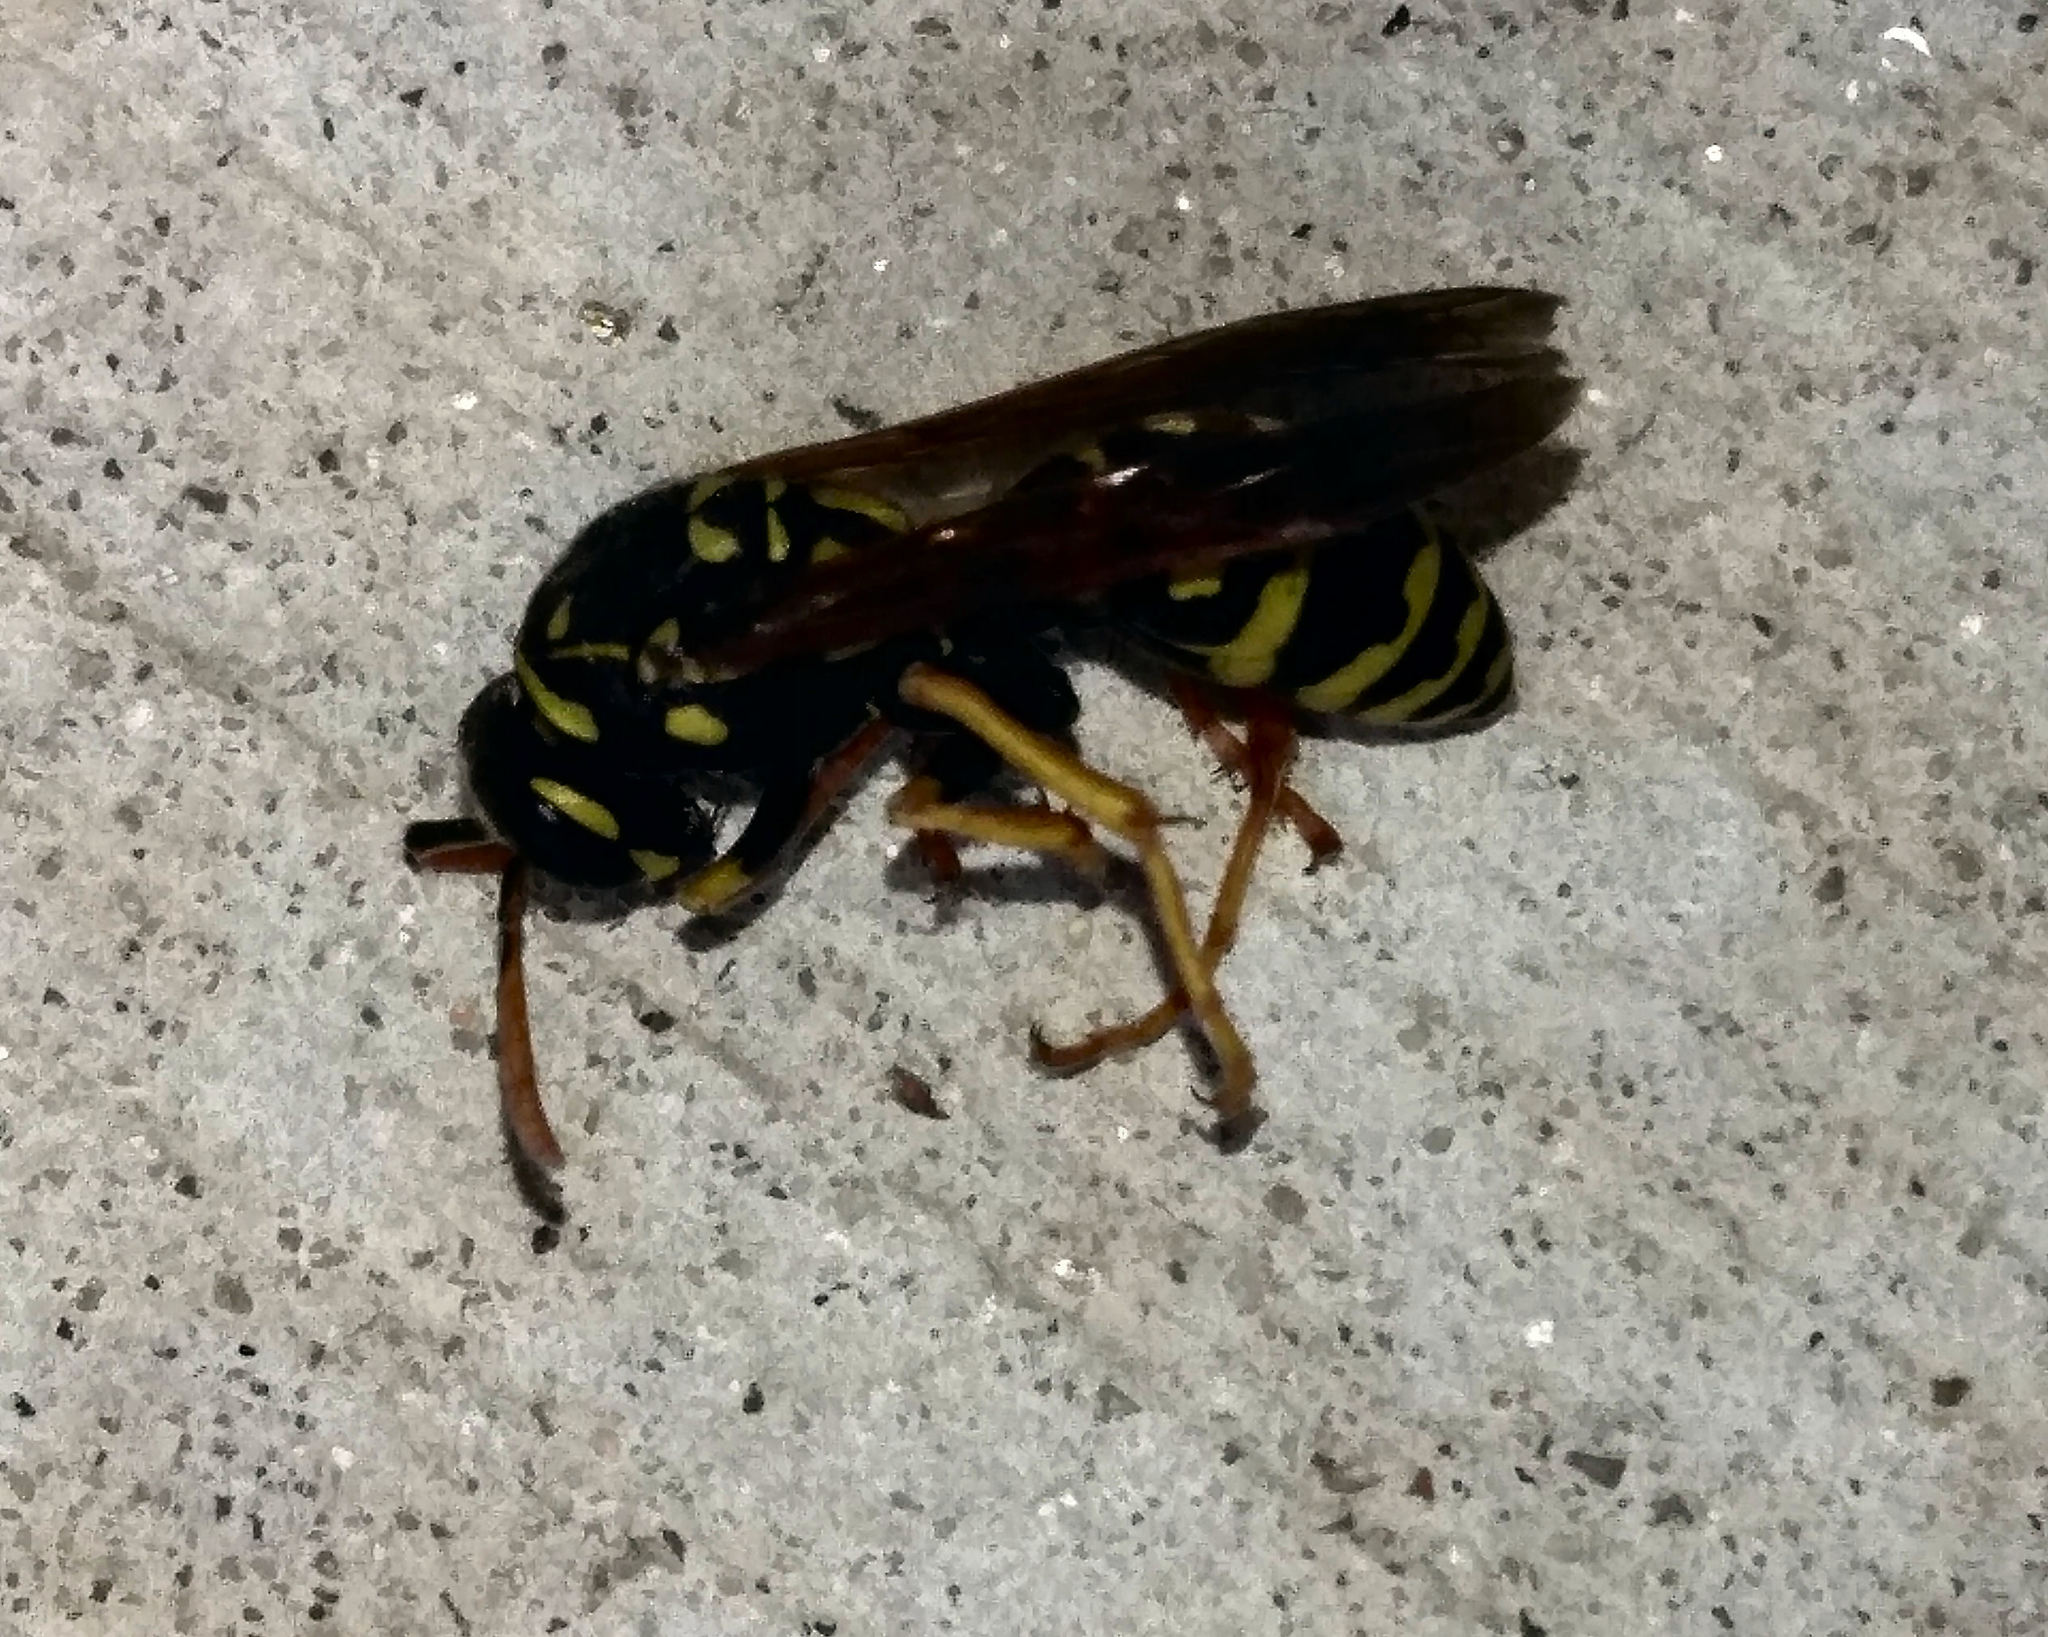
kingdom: Animalia
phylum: Arthropoda
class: Insecta
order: Hymenoptera
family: Eumenidae
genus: Polistes
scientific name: Polistes dominula
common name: Paper wasp
